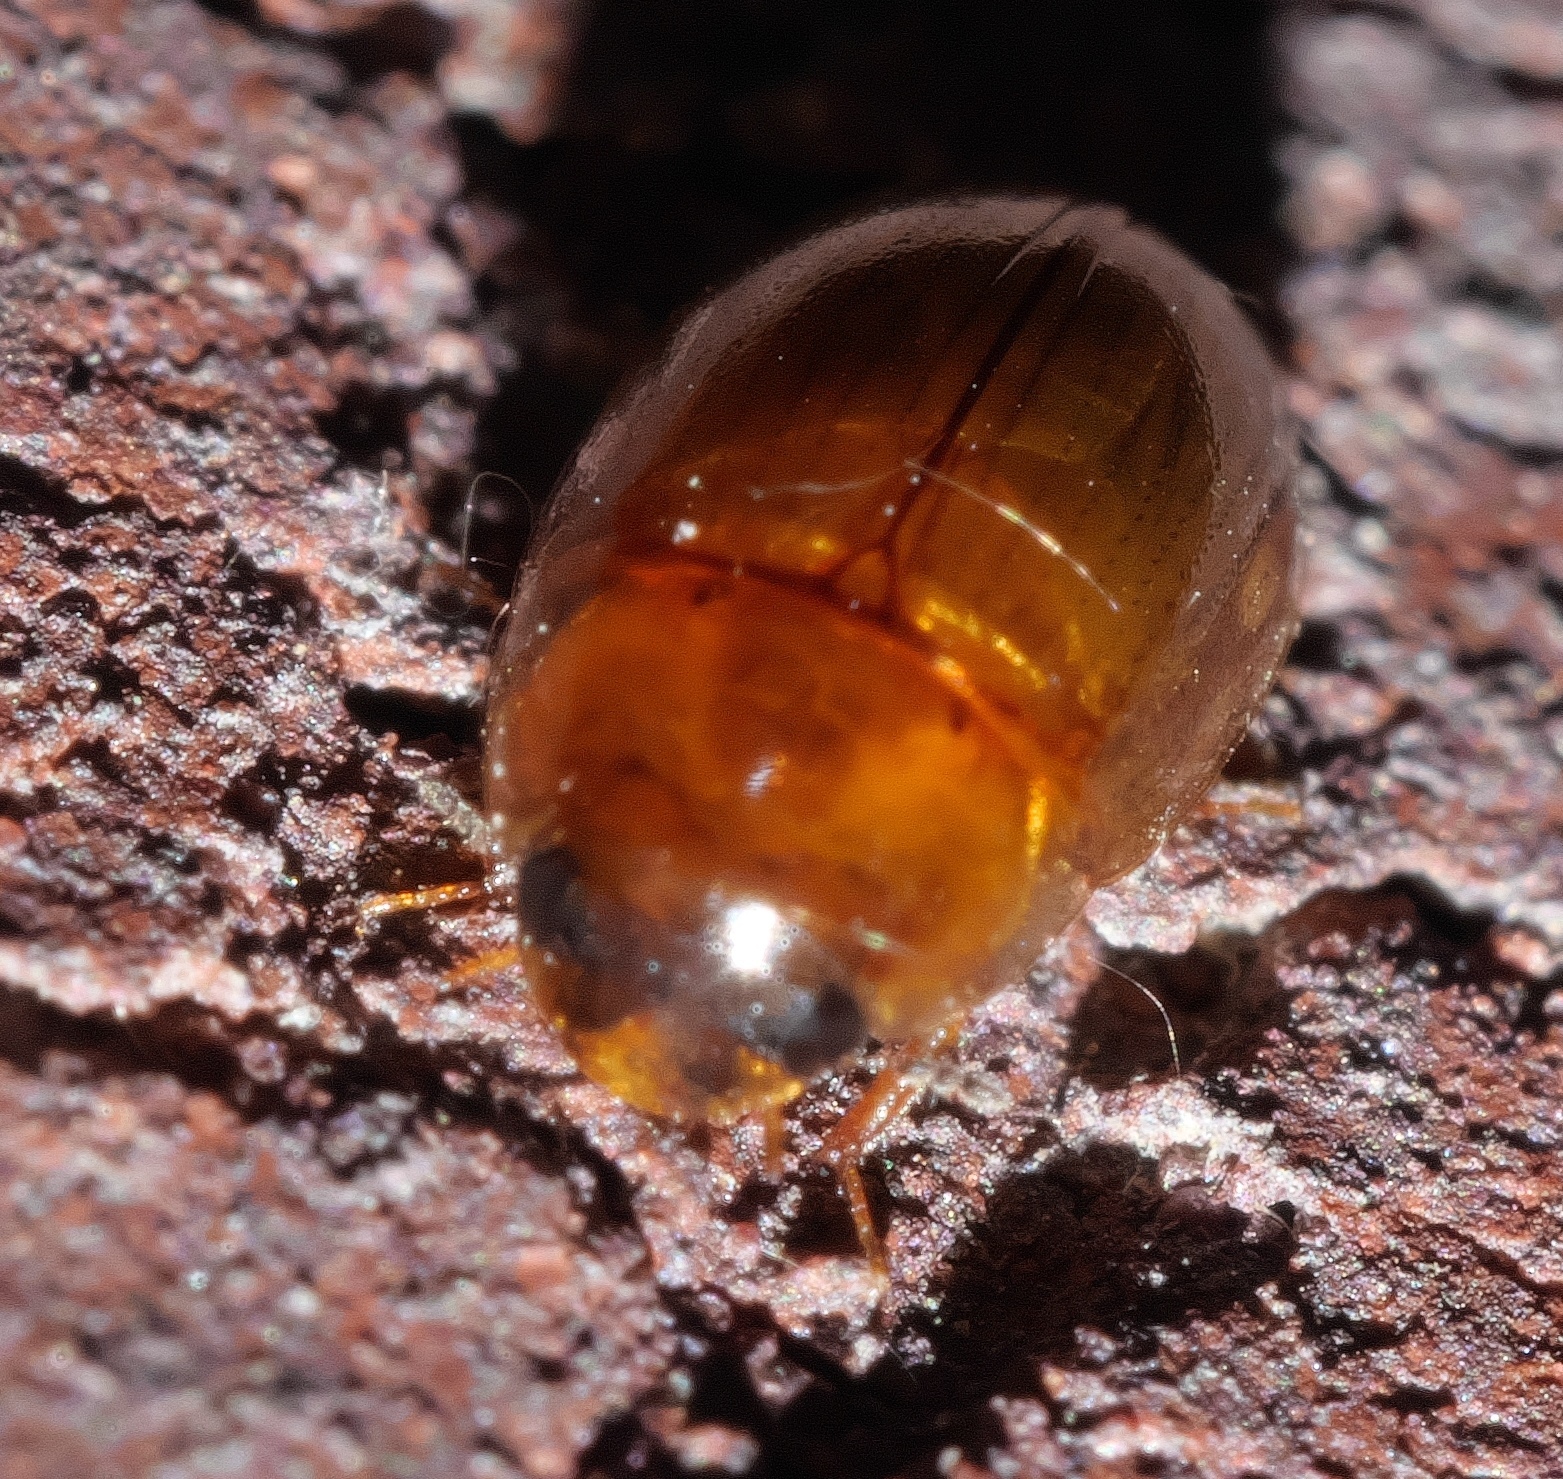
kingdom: Animalia
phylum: Arthropoda
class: Insecta
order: Coleoptera
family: Hydrophilidae
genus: Enochrus
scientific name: Enochrus
